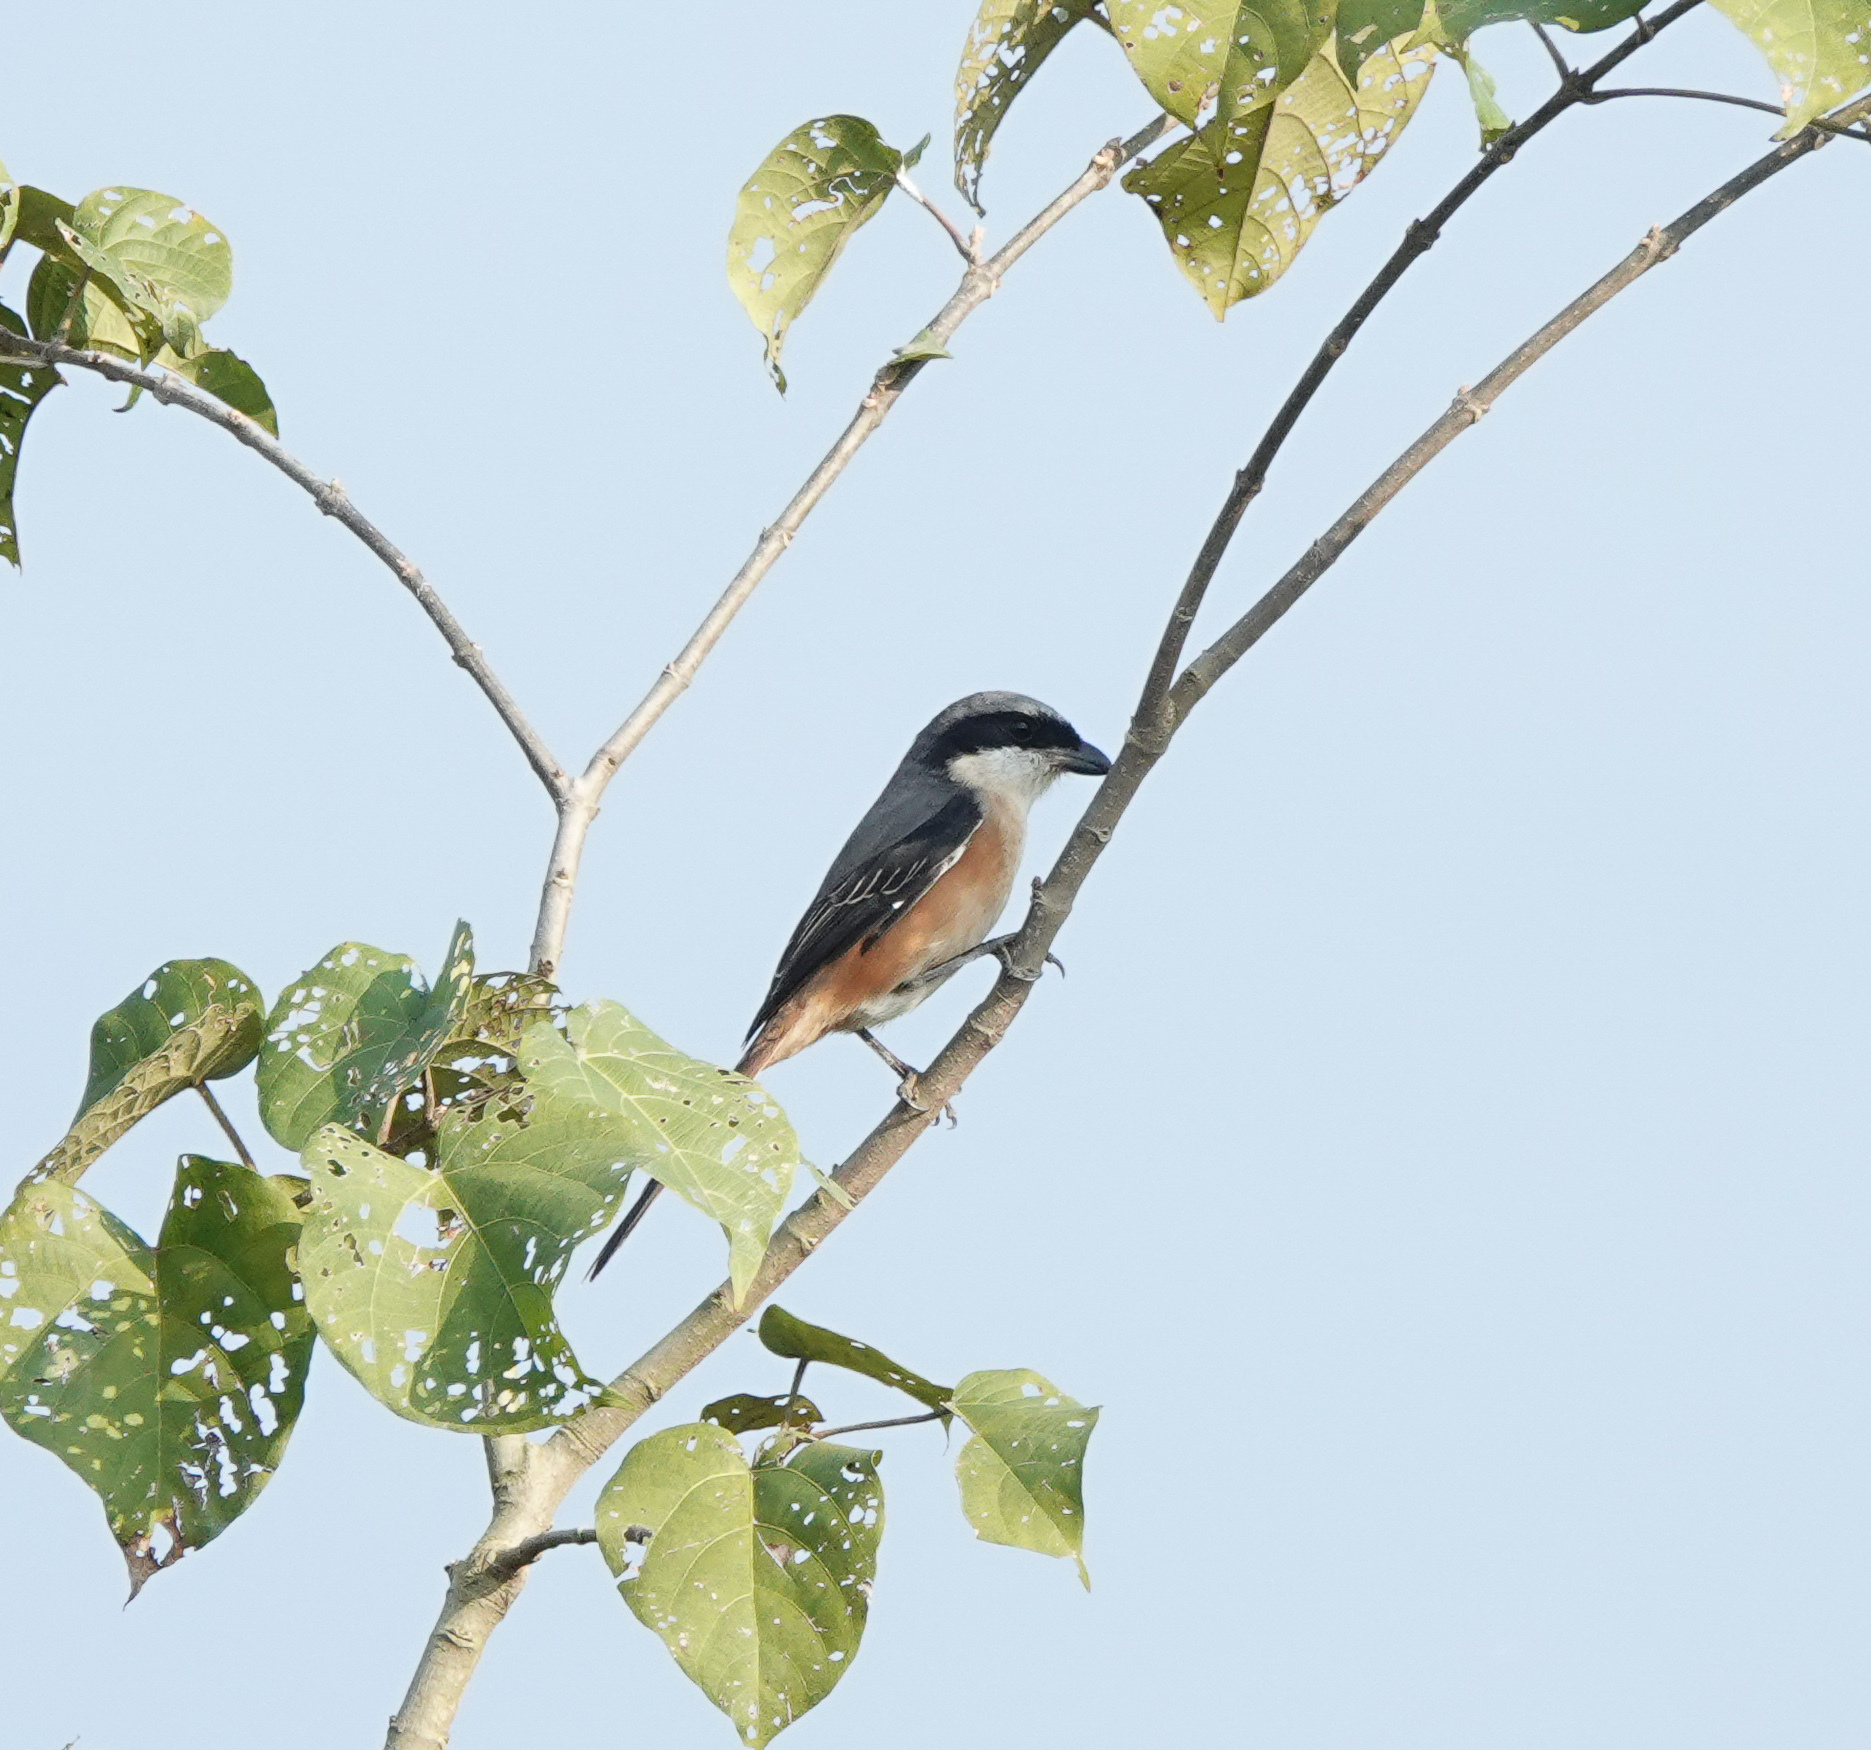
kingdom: Animalia
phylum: Chordata
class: Aves
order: Passeriformes
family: Laniidae
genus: Lanius
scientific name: Lanius tephronotus
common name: Grey-backed shrike
